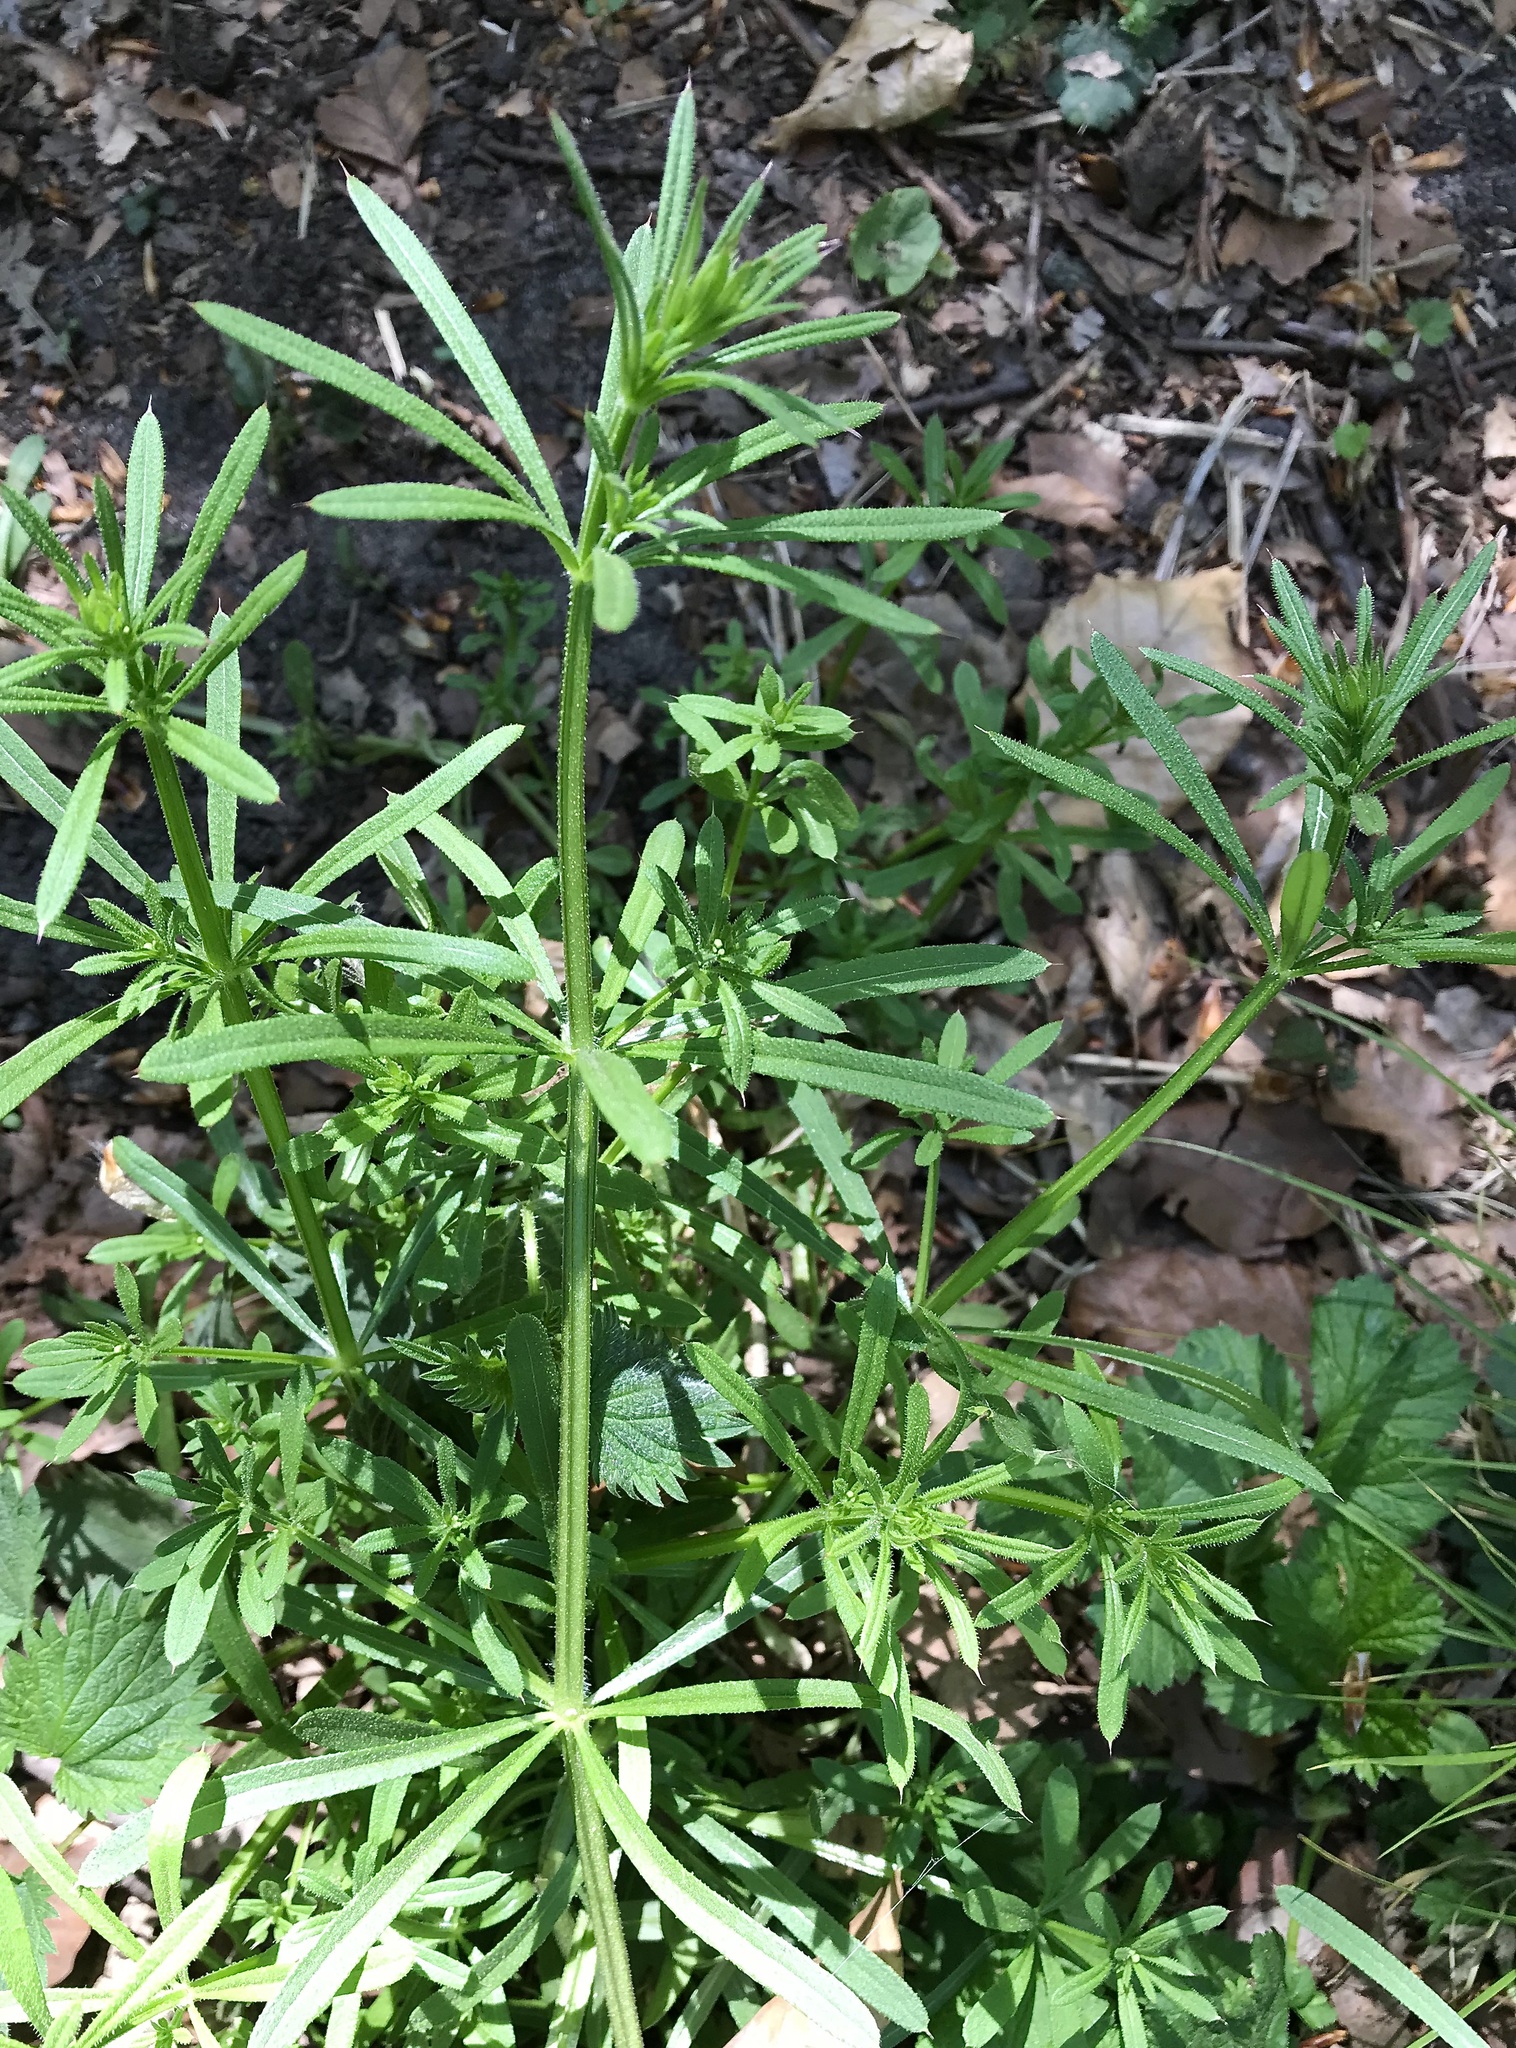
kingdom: Plantae
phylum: Tracheophyta
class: Magnoliopsida
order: Gentianales
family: Rubiaceae
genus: Galium
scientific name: Galium aparine
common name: Cleavers
